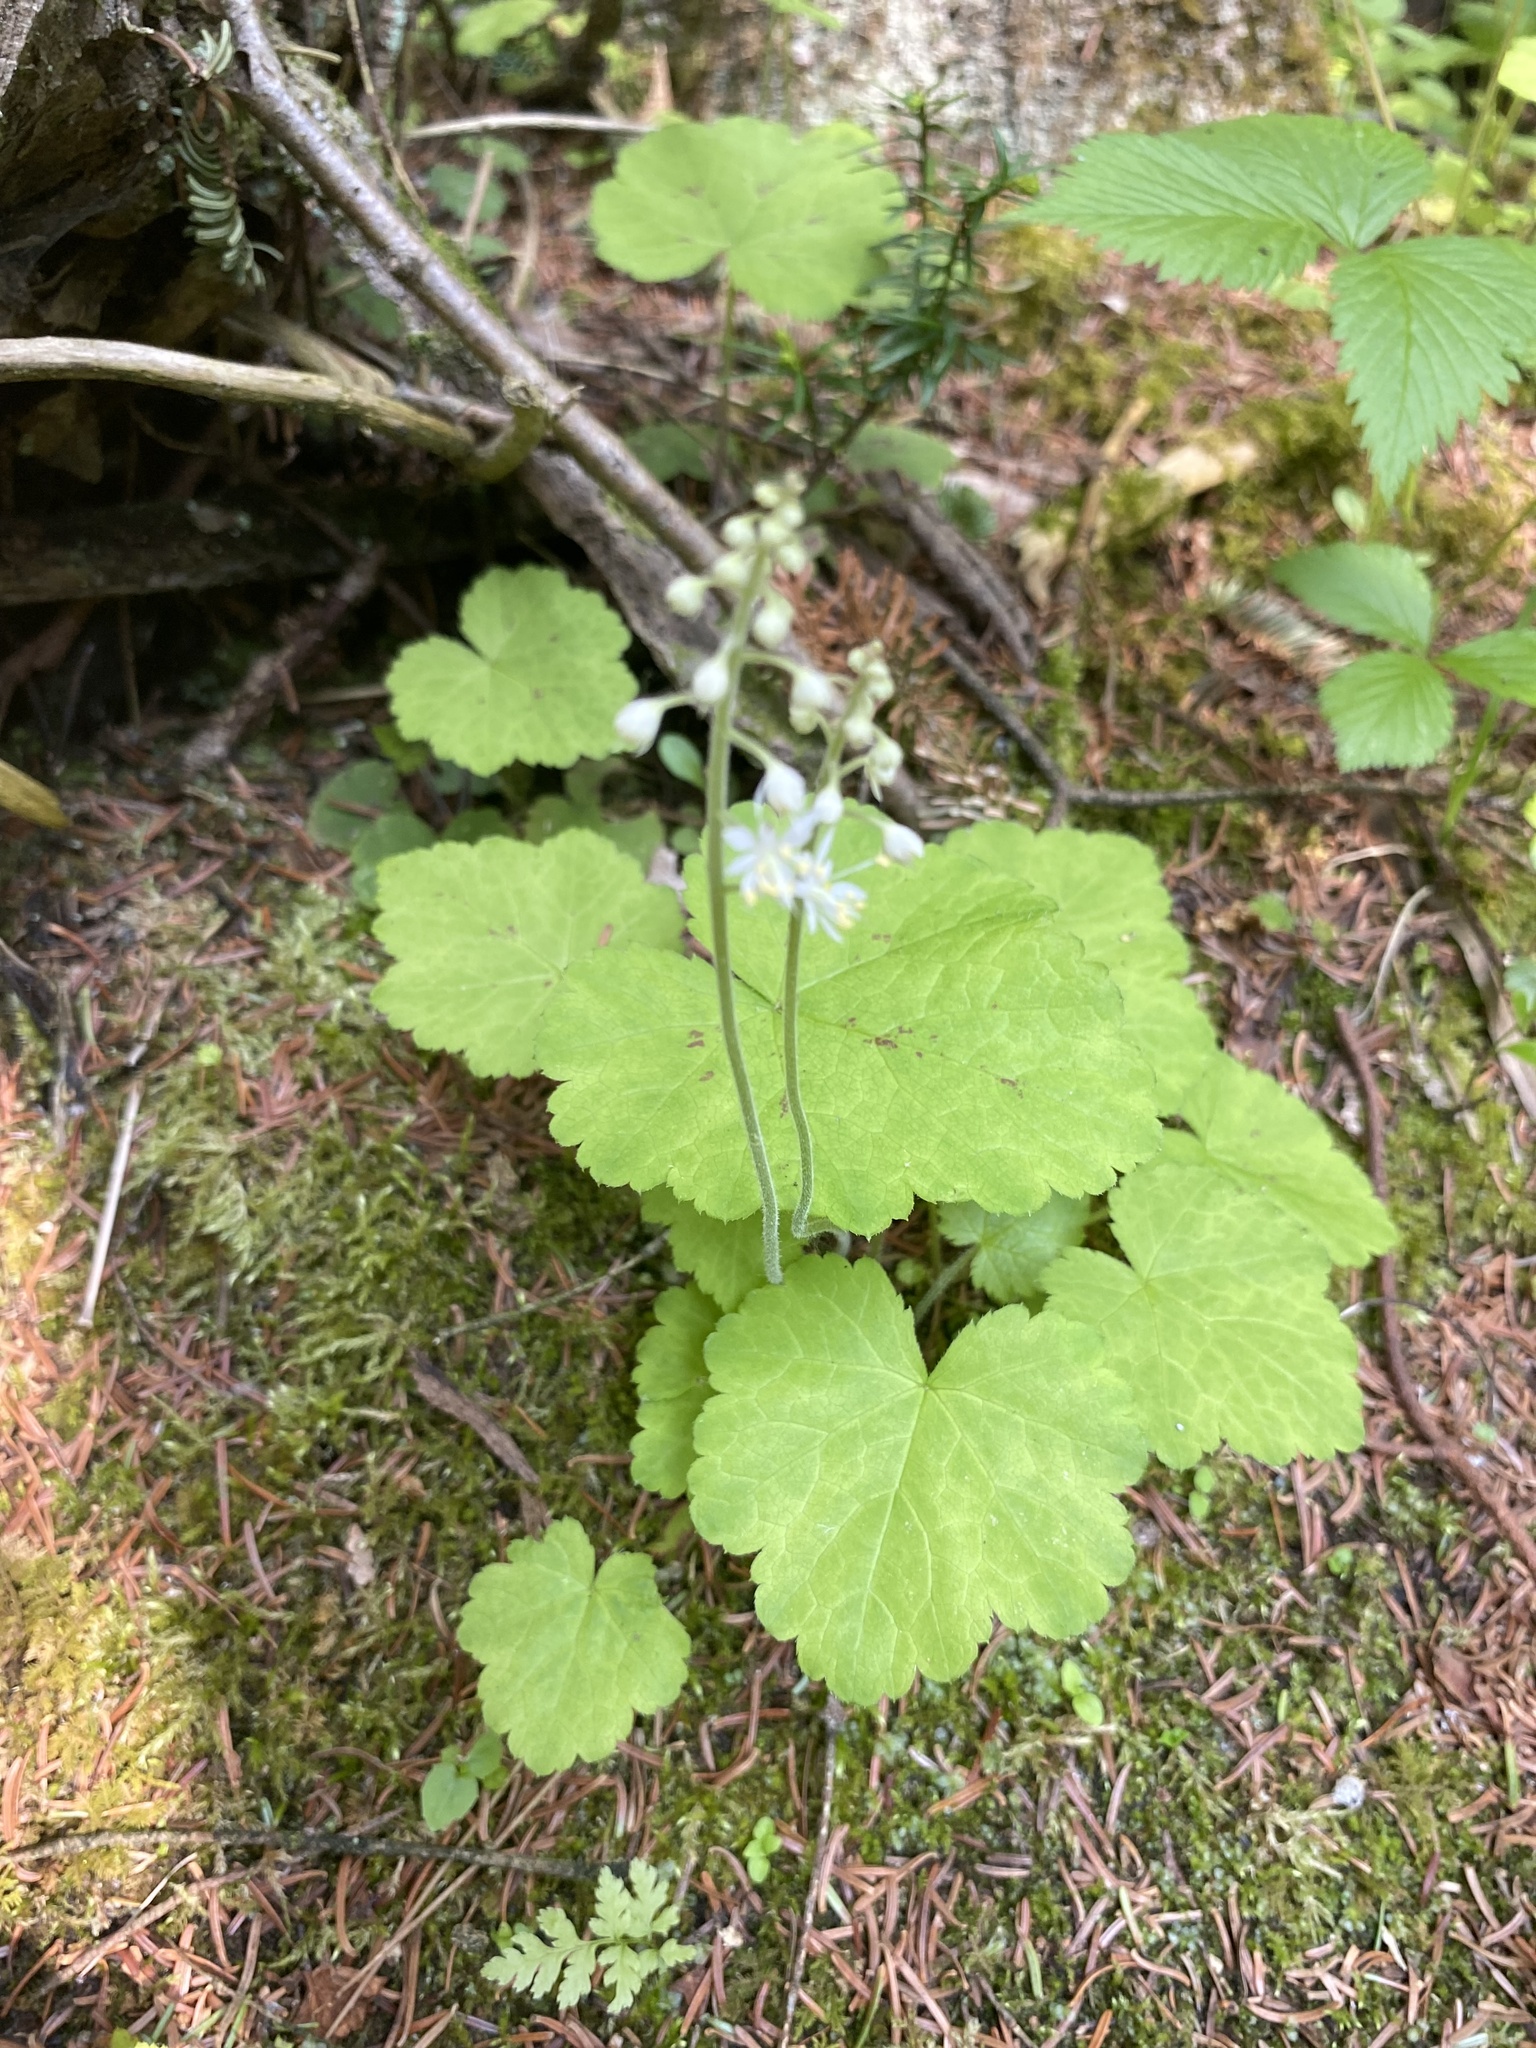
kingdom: Plantae
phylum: Tracheophyta
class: Magnoliopsida
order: Saxifragales
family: Saxifragaceae
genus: Tiarella
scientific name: Tiarella stolonifera
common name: Stoloniferous foamflower
